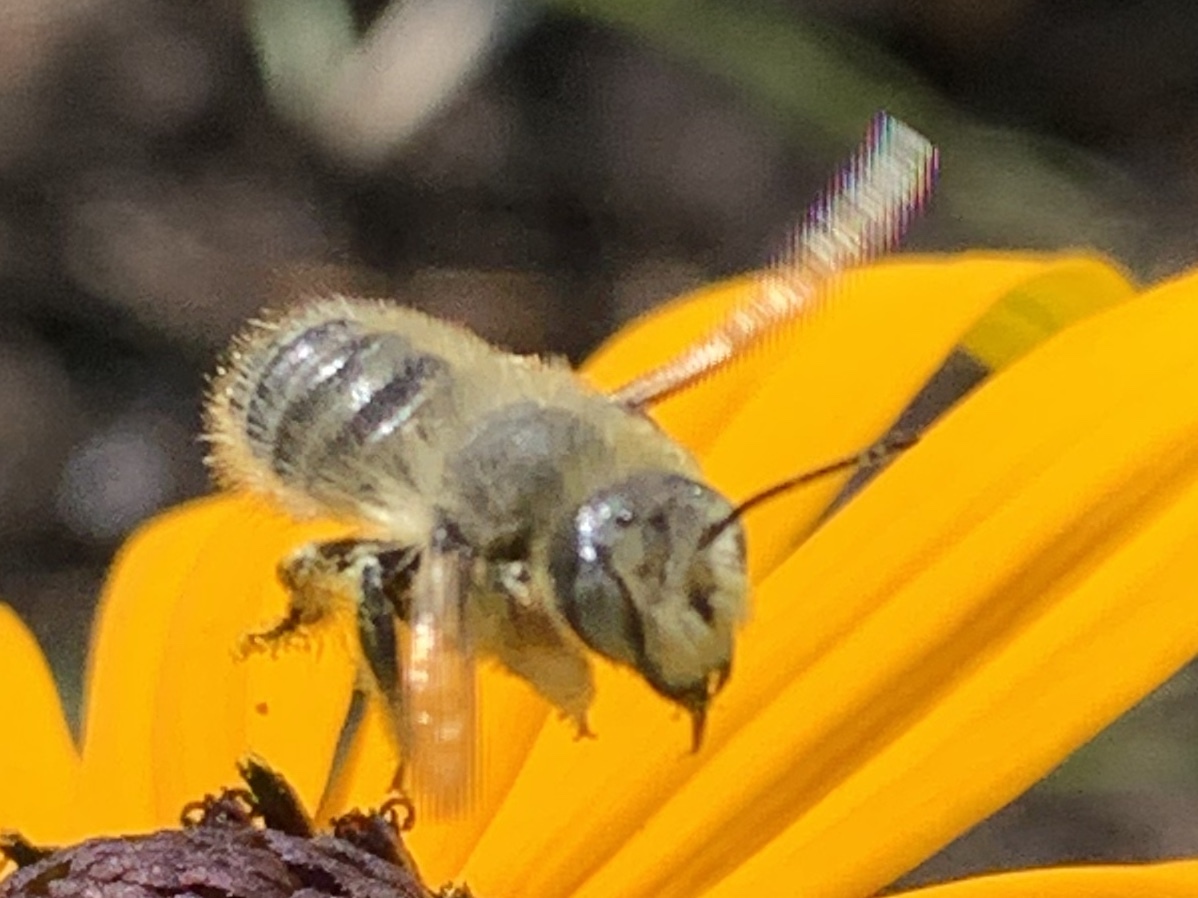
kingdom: Animalia
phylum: Arthropoda
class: Insecta
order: Hymenoptera
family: Megachilidae
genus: Megachile
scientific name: Megachile perihirta
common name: Western leafcutter
